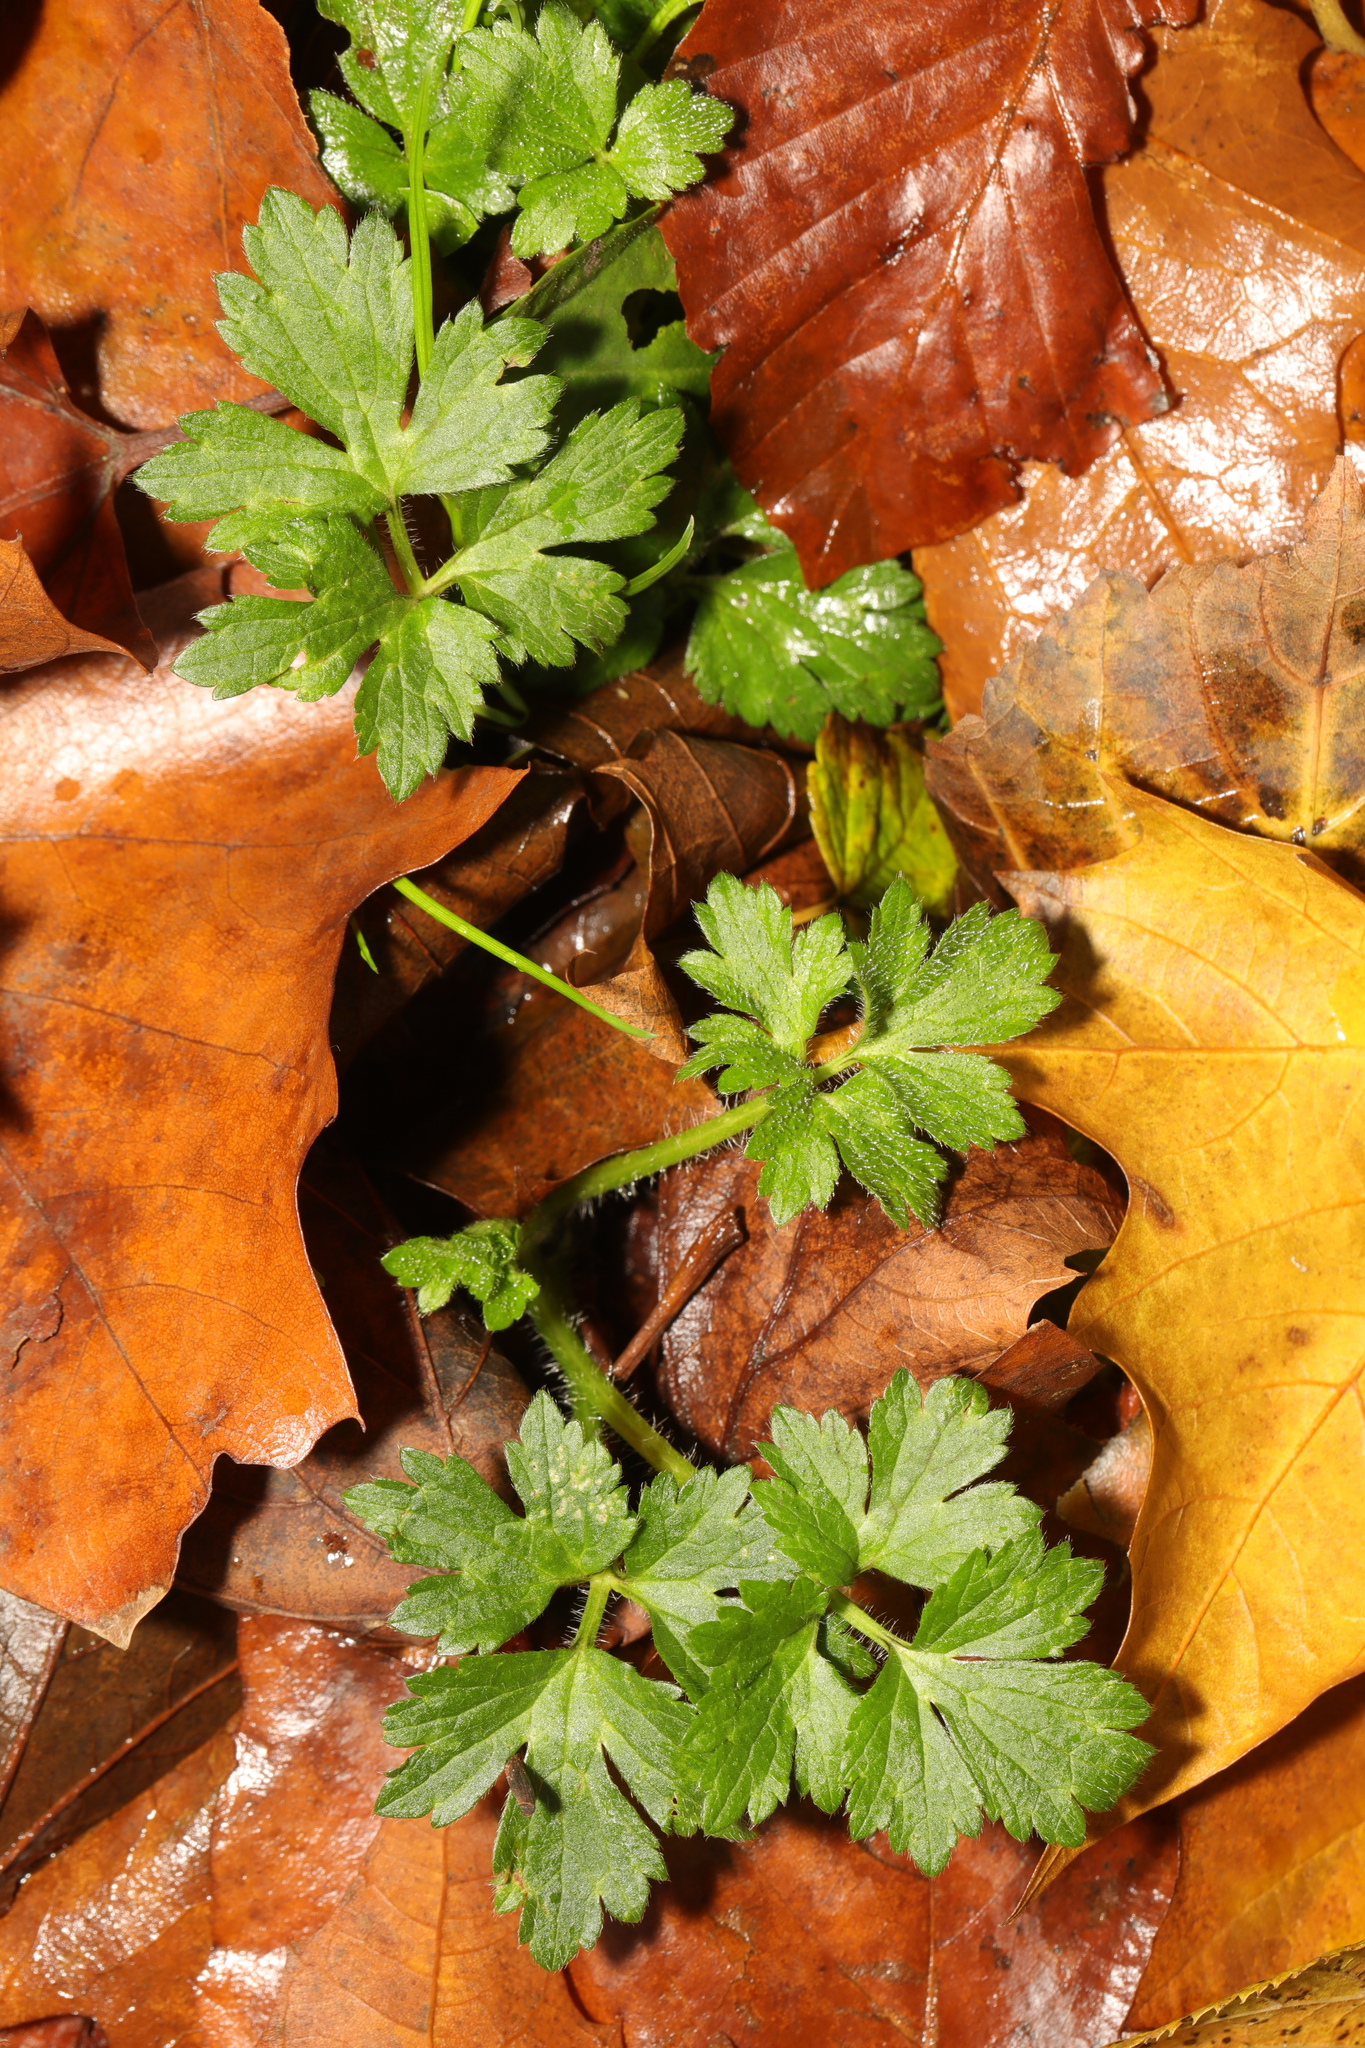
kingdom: Plantae
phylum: Tracheophyta
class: Magnoliopsida
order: Ranunculales
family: Ranunculaceae
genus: Ranunculus
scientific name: Ranunculus repens
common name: Creeping buttercup
